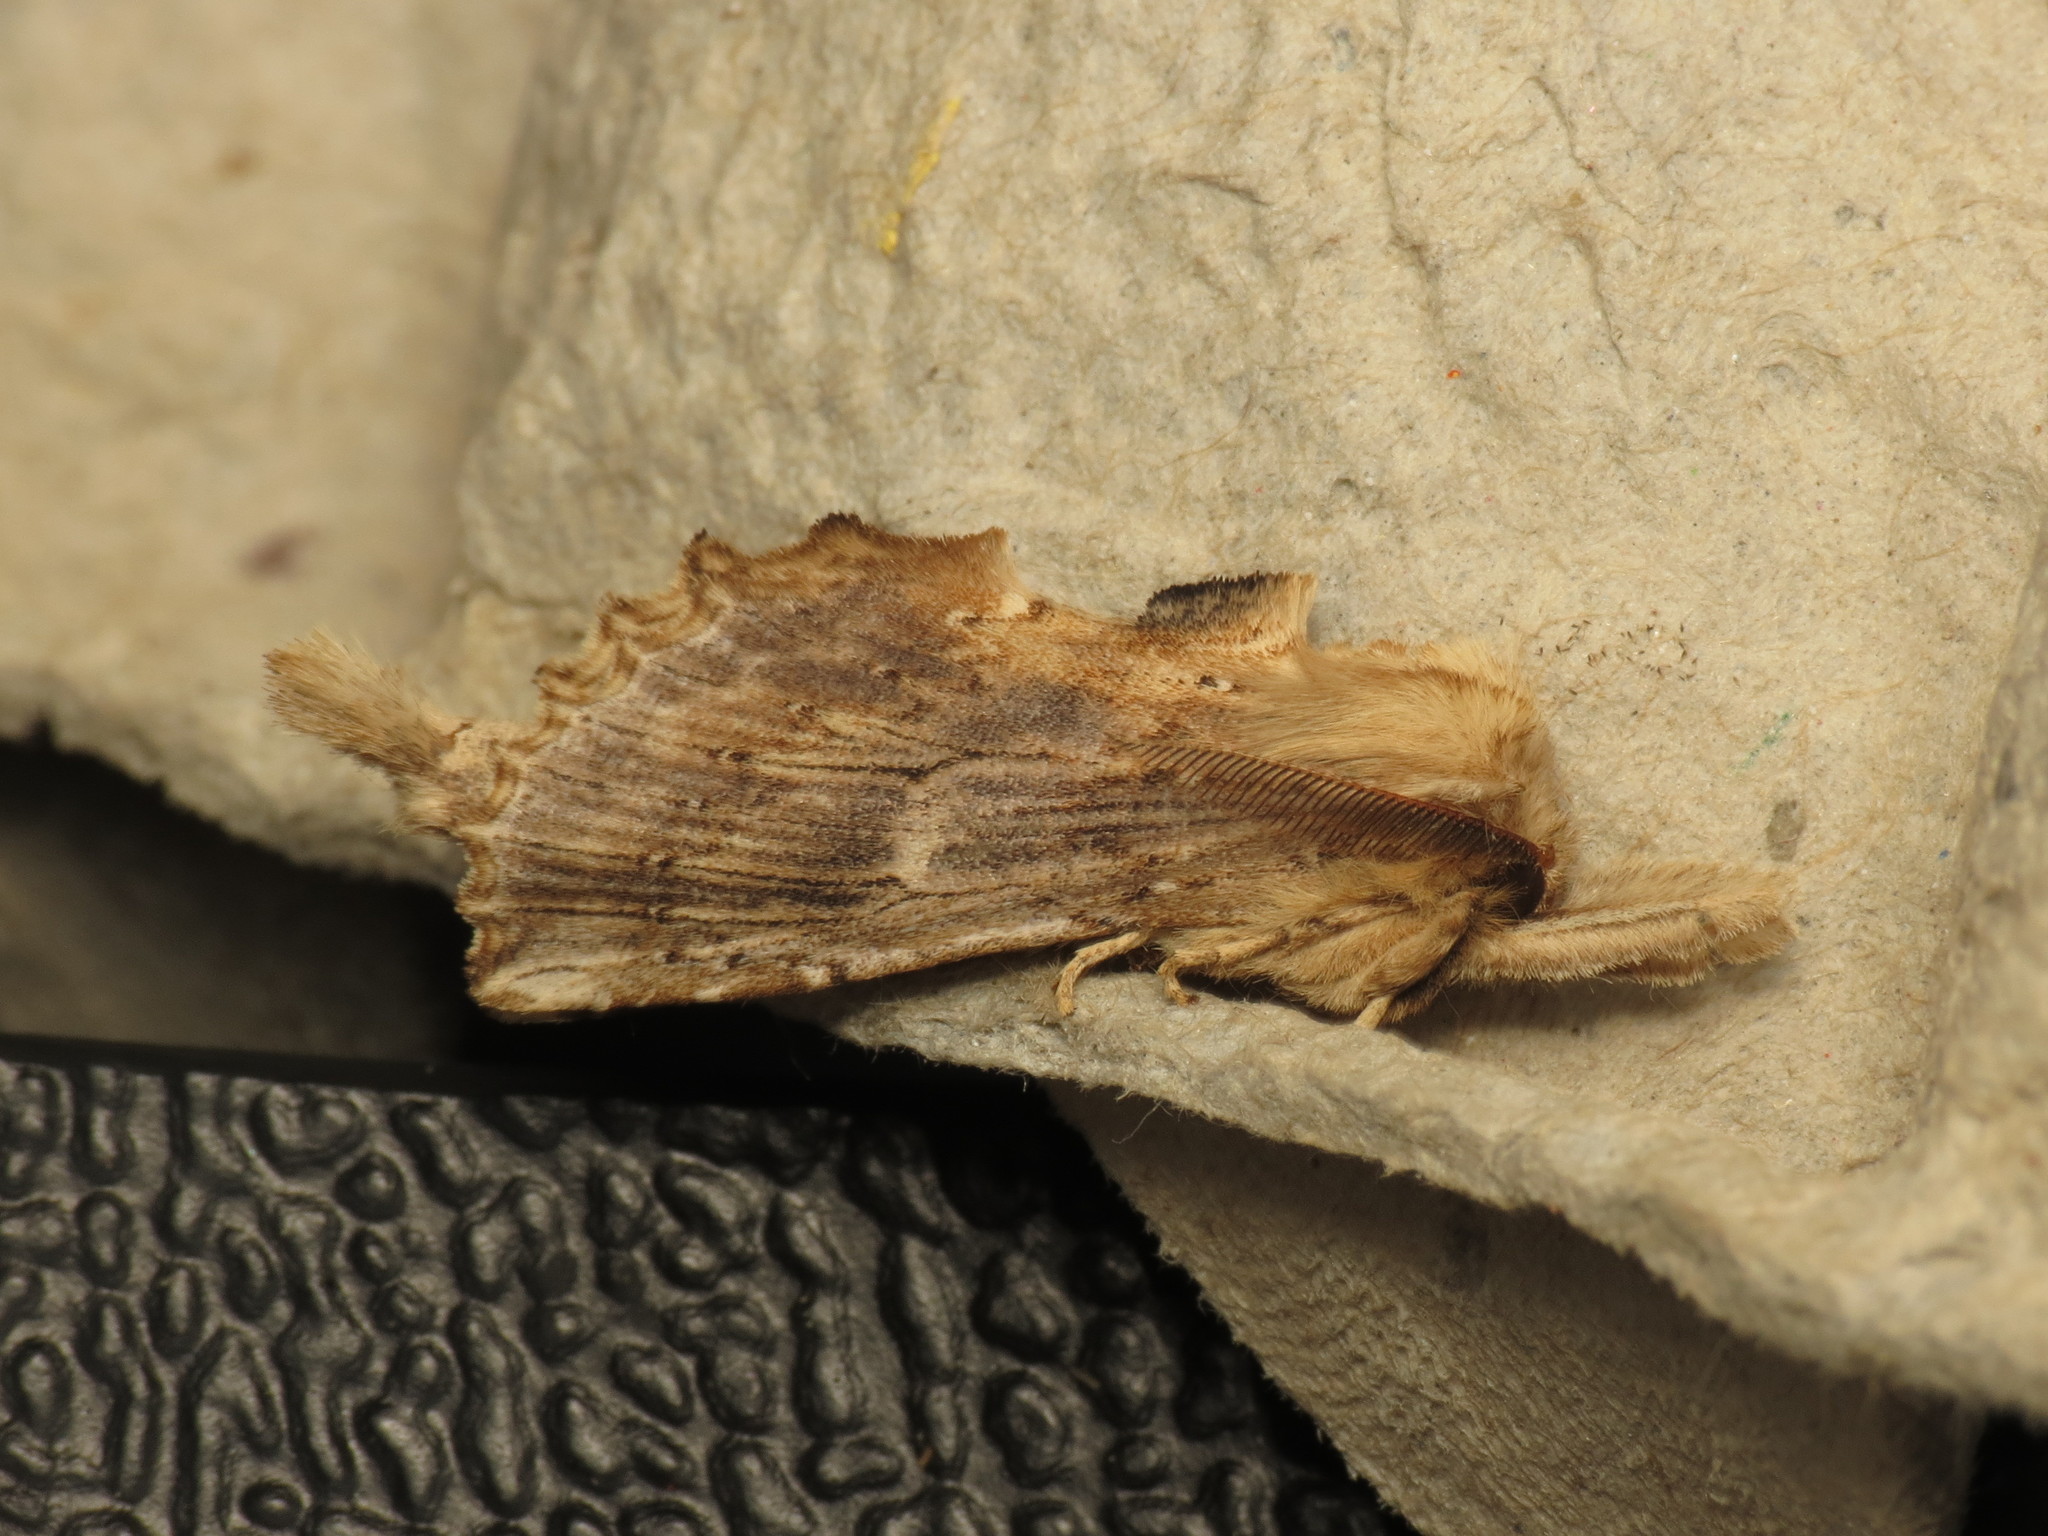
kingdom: Animalia
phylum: Arthropoda
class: Insecta
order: Lepidoptera
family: Notodontidae
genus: Pterostoma
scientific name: Pterostoma palpina
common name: Pale prominent
